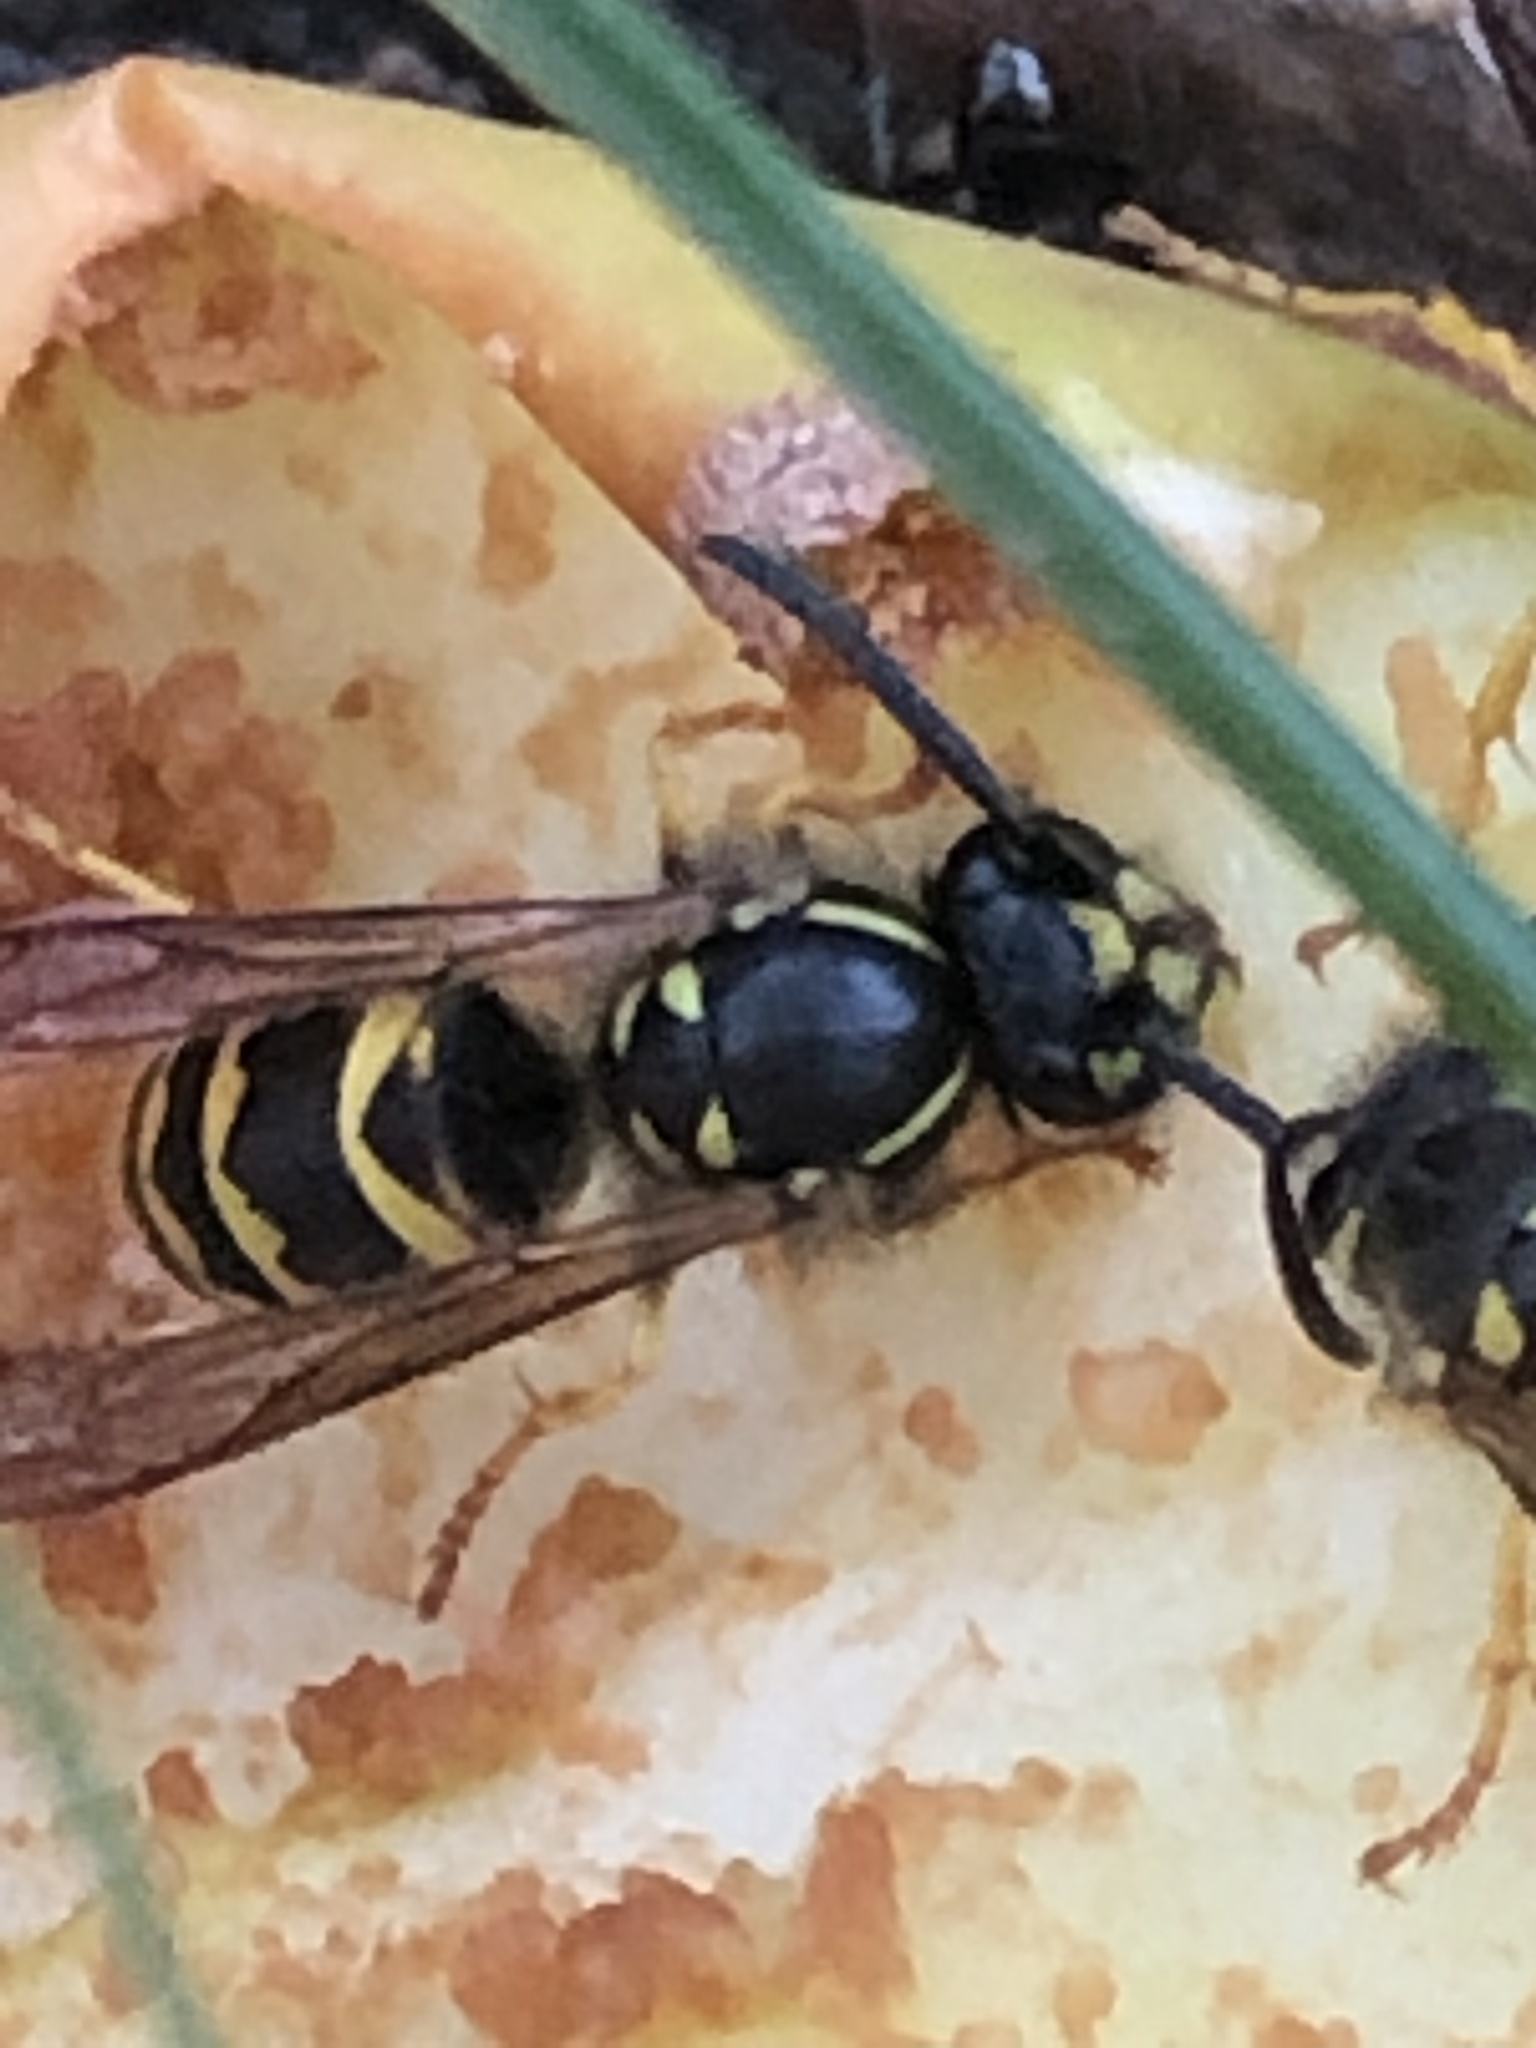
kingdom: Animalia
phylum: Arthropoda
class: Insecta
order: Hymenoptera
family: Vespidae
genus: Vespula
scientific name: Vespula alascensis
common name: Alaska yellowjacket
